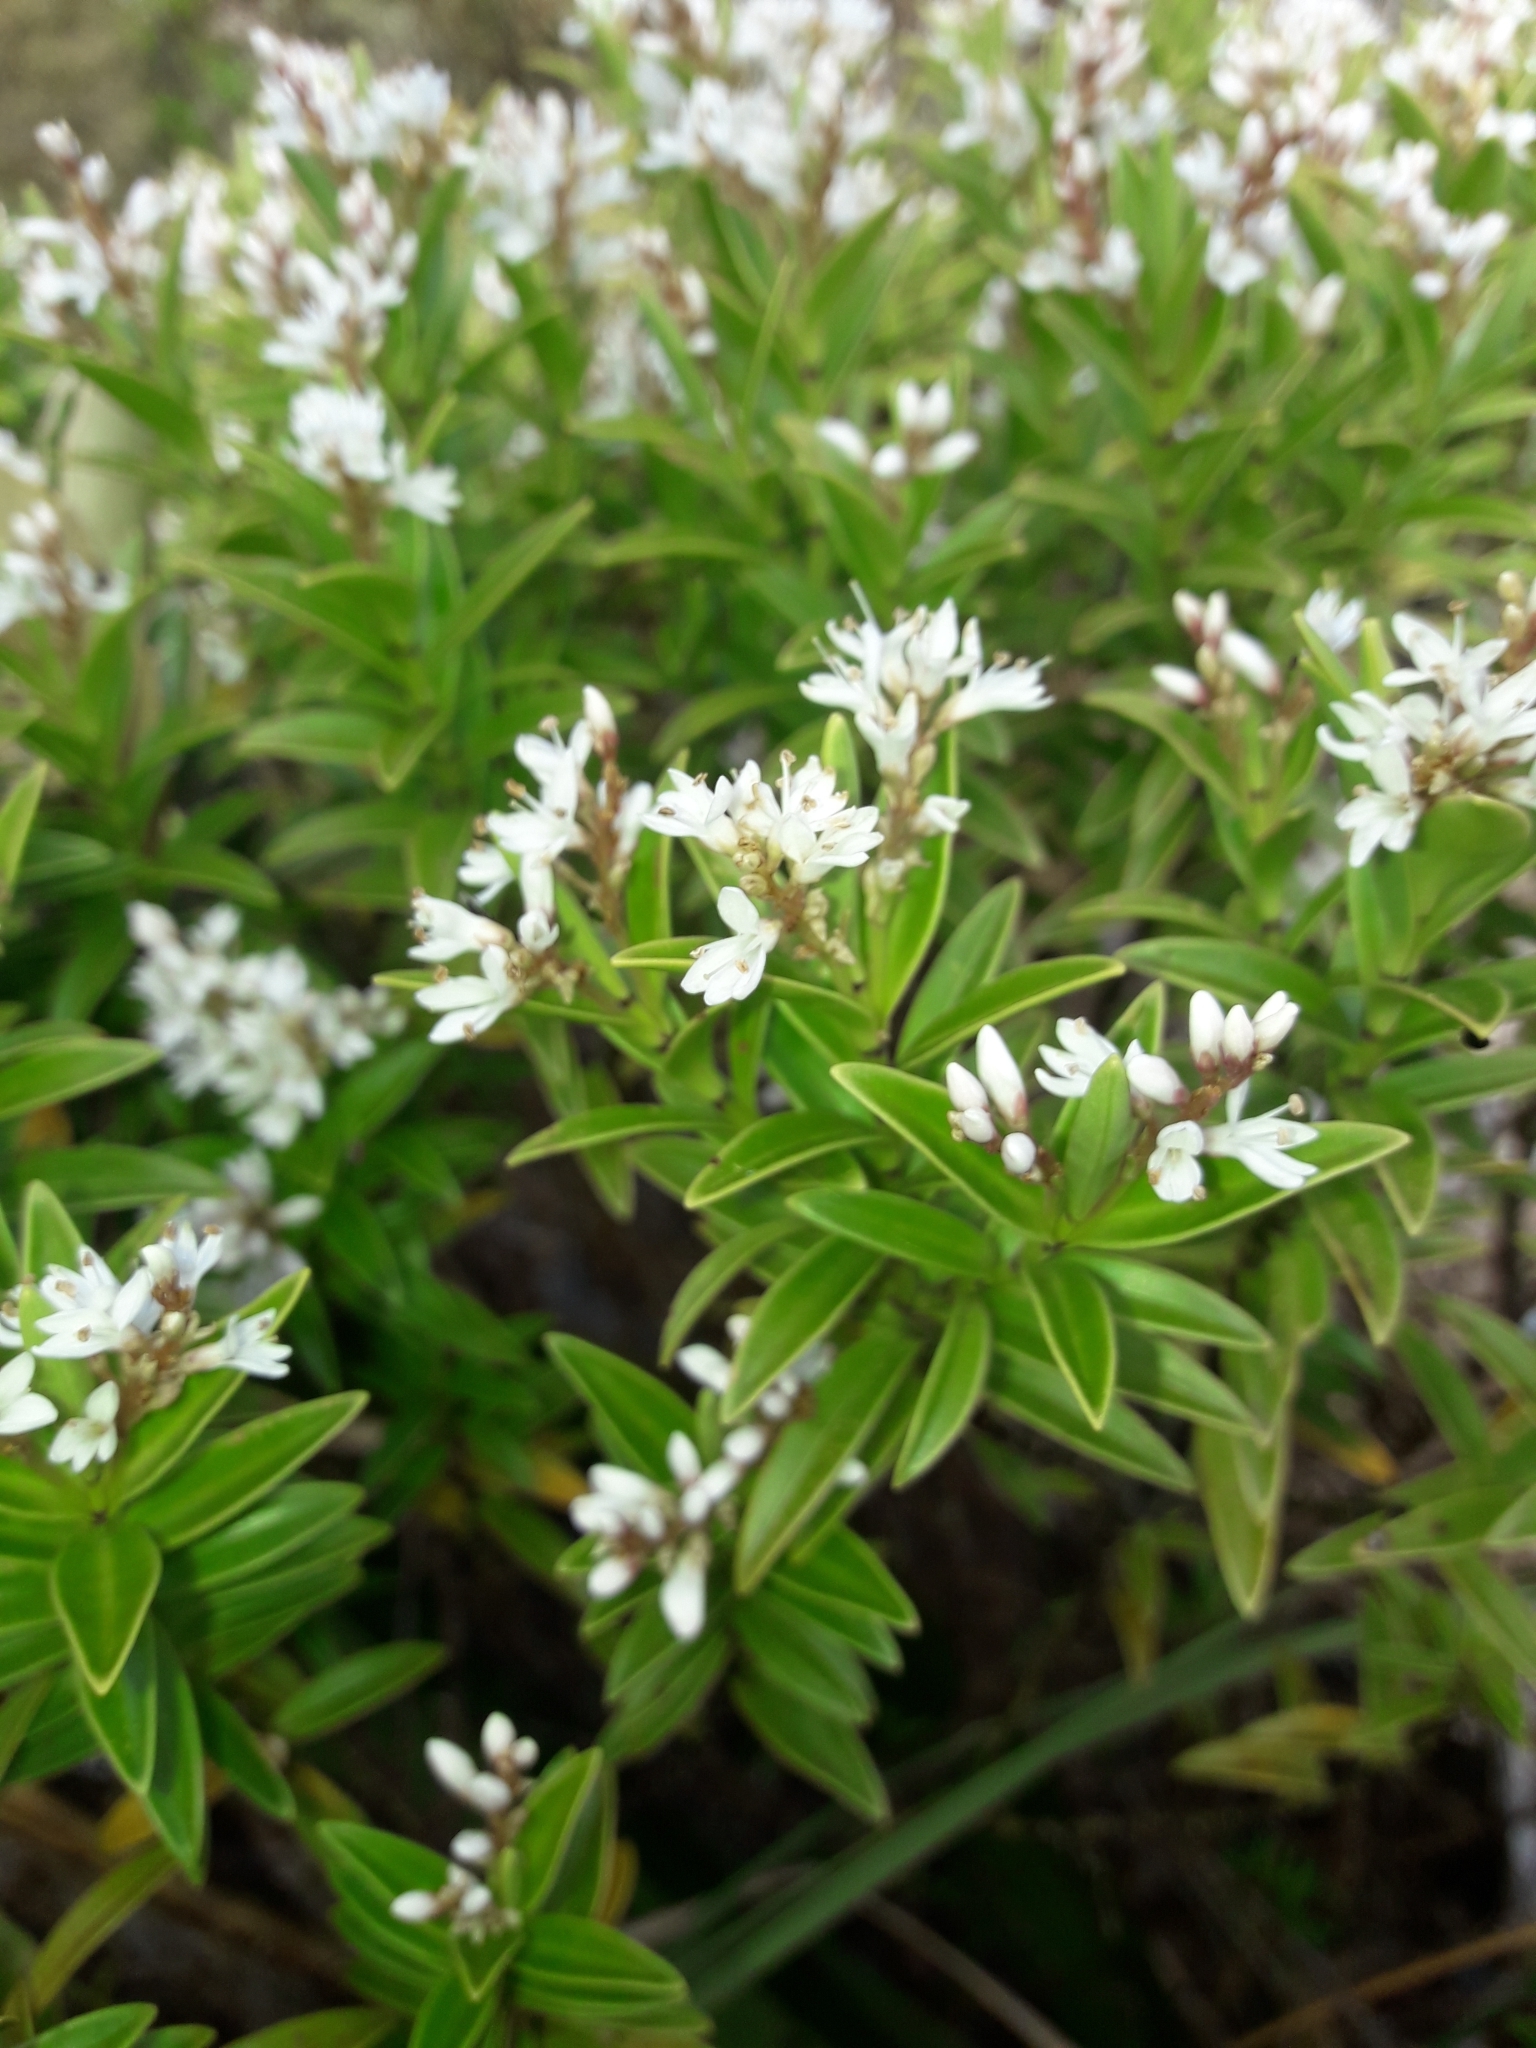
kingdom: Plantae
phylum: Tracheophyta
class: Magnoliopsida
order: Lamiales
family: Plantaginaceae
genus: Veronica
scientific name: Veronica subalpina
